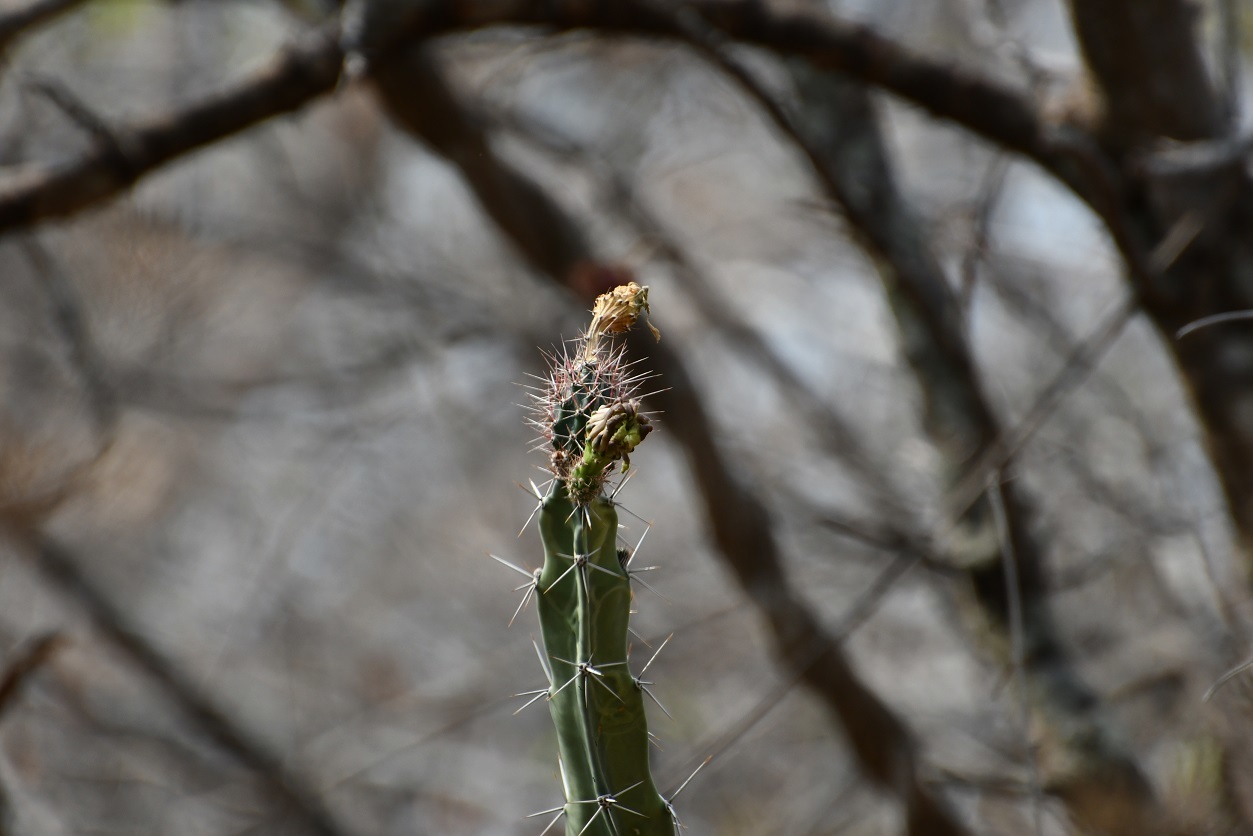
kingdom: Plantae
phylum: Tracheophyta
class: Magnoliopsida
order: Caryophyllales
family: Cactaceae
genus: Acanthocereus
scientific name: Acanthocereus chiapensis
